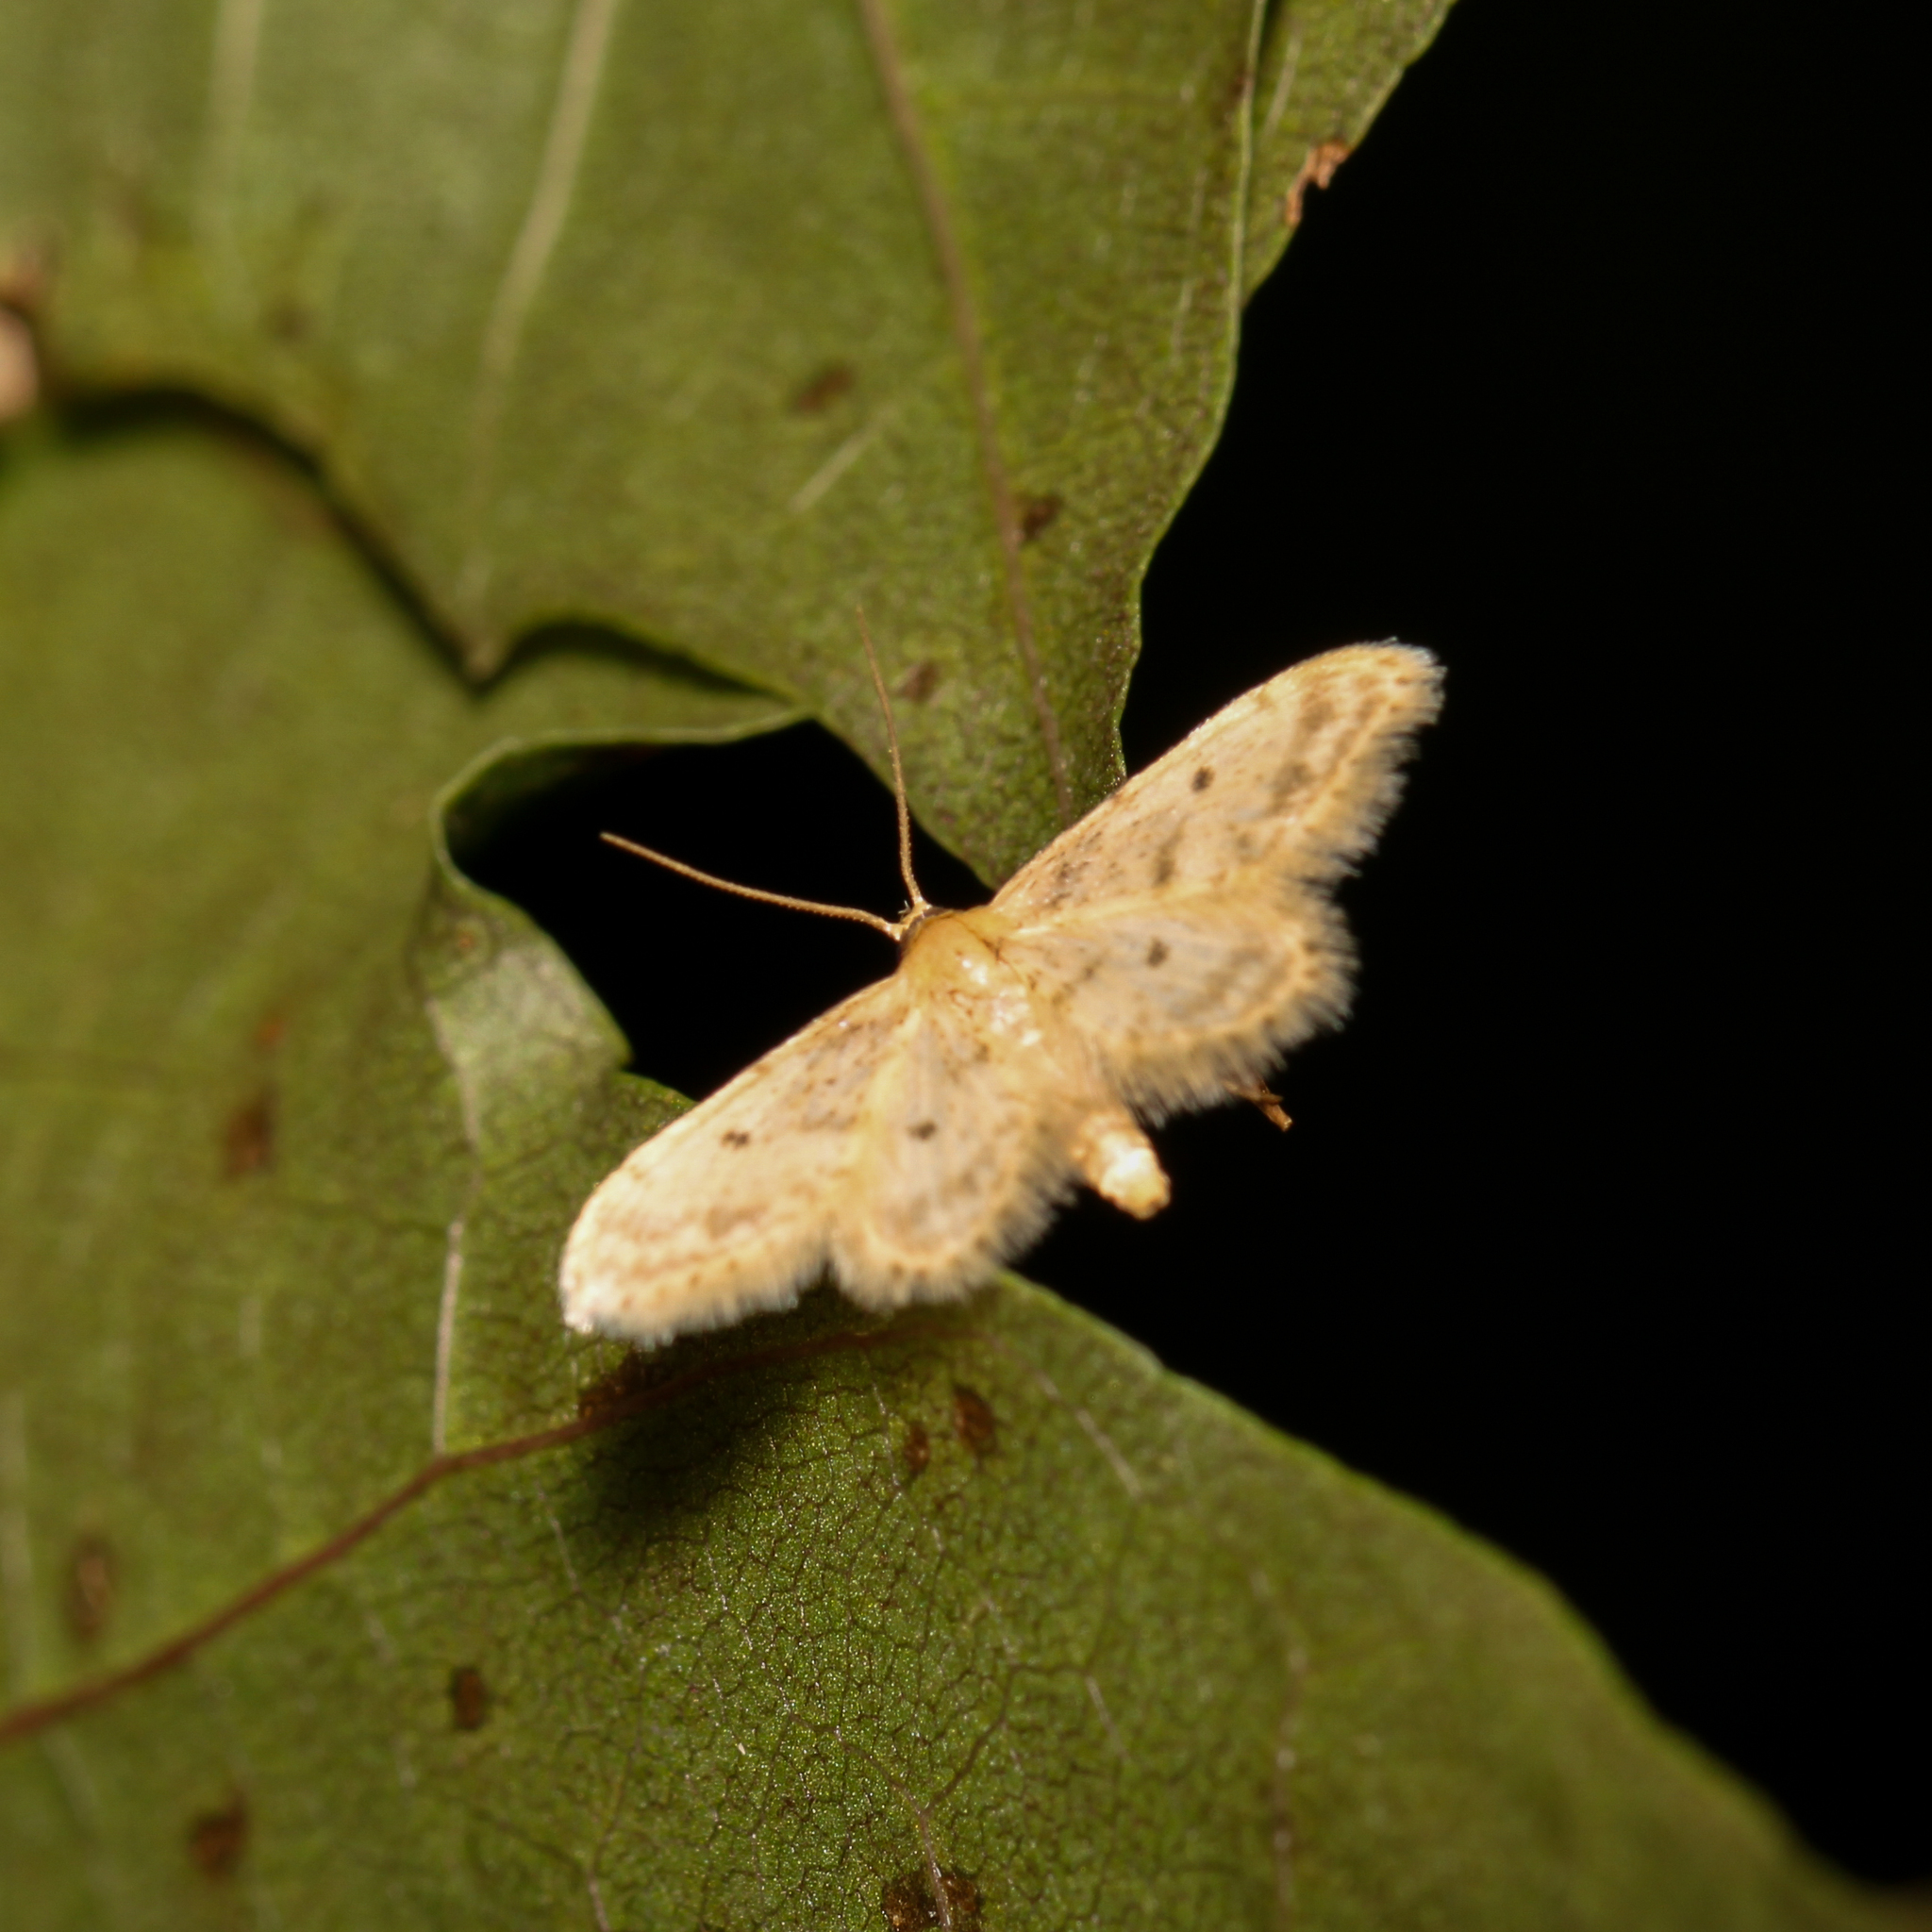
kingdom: Animalia
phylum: Arthropoda
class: Insecta
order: Lepidoptera
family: Geometridae
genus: Idaea
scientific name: Idaea bonifata
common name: Fortunate wave
